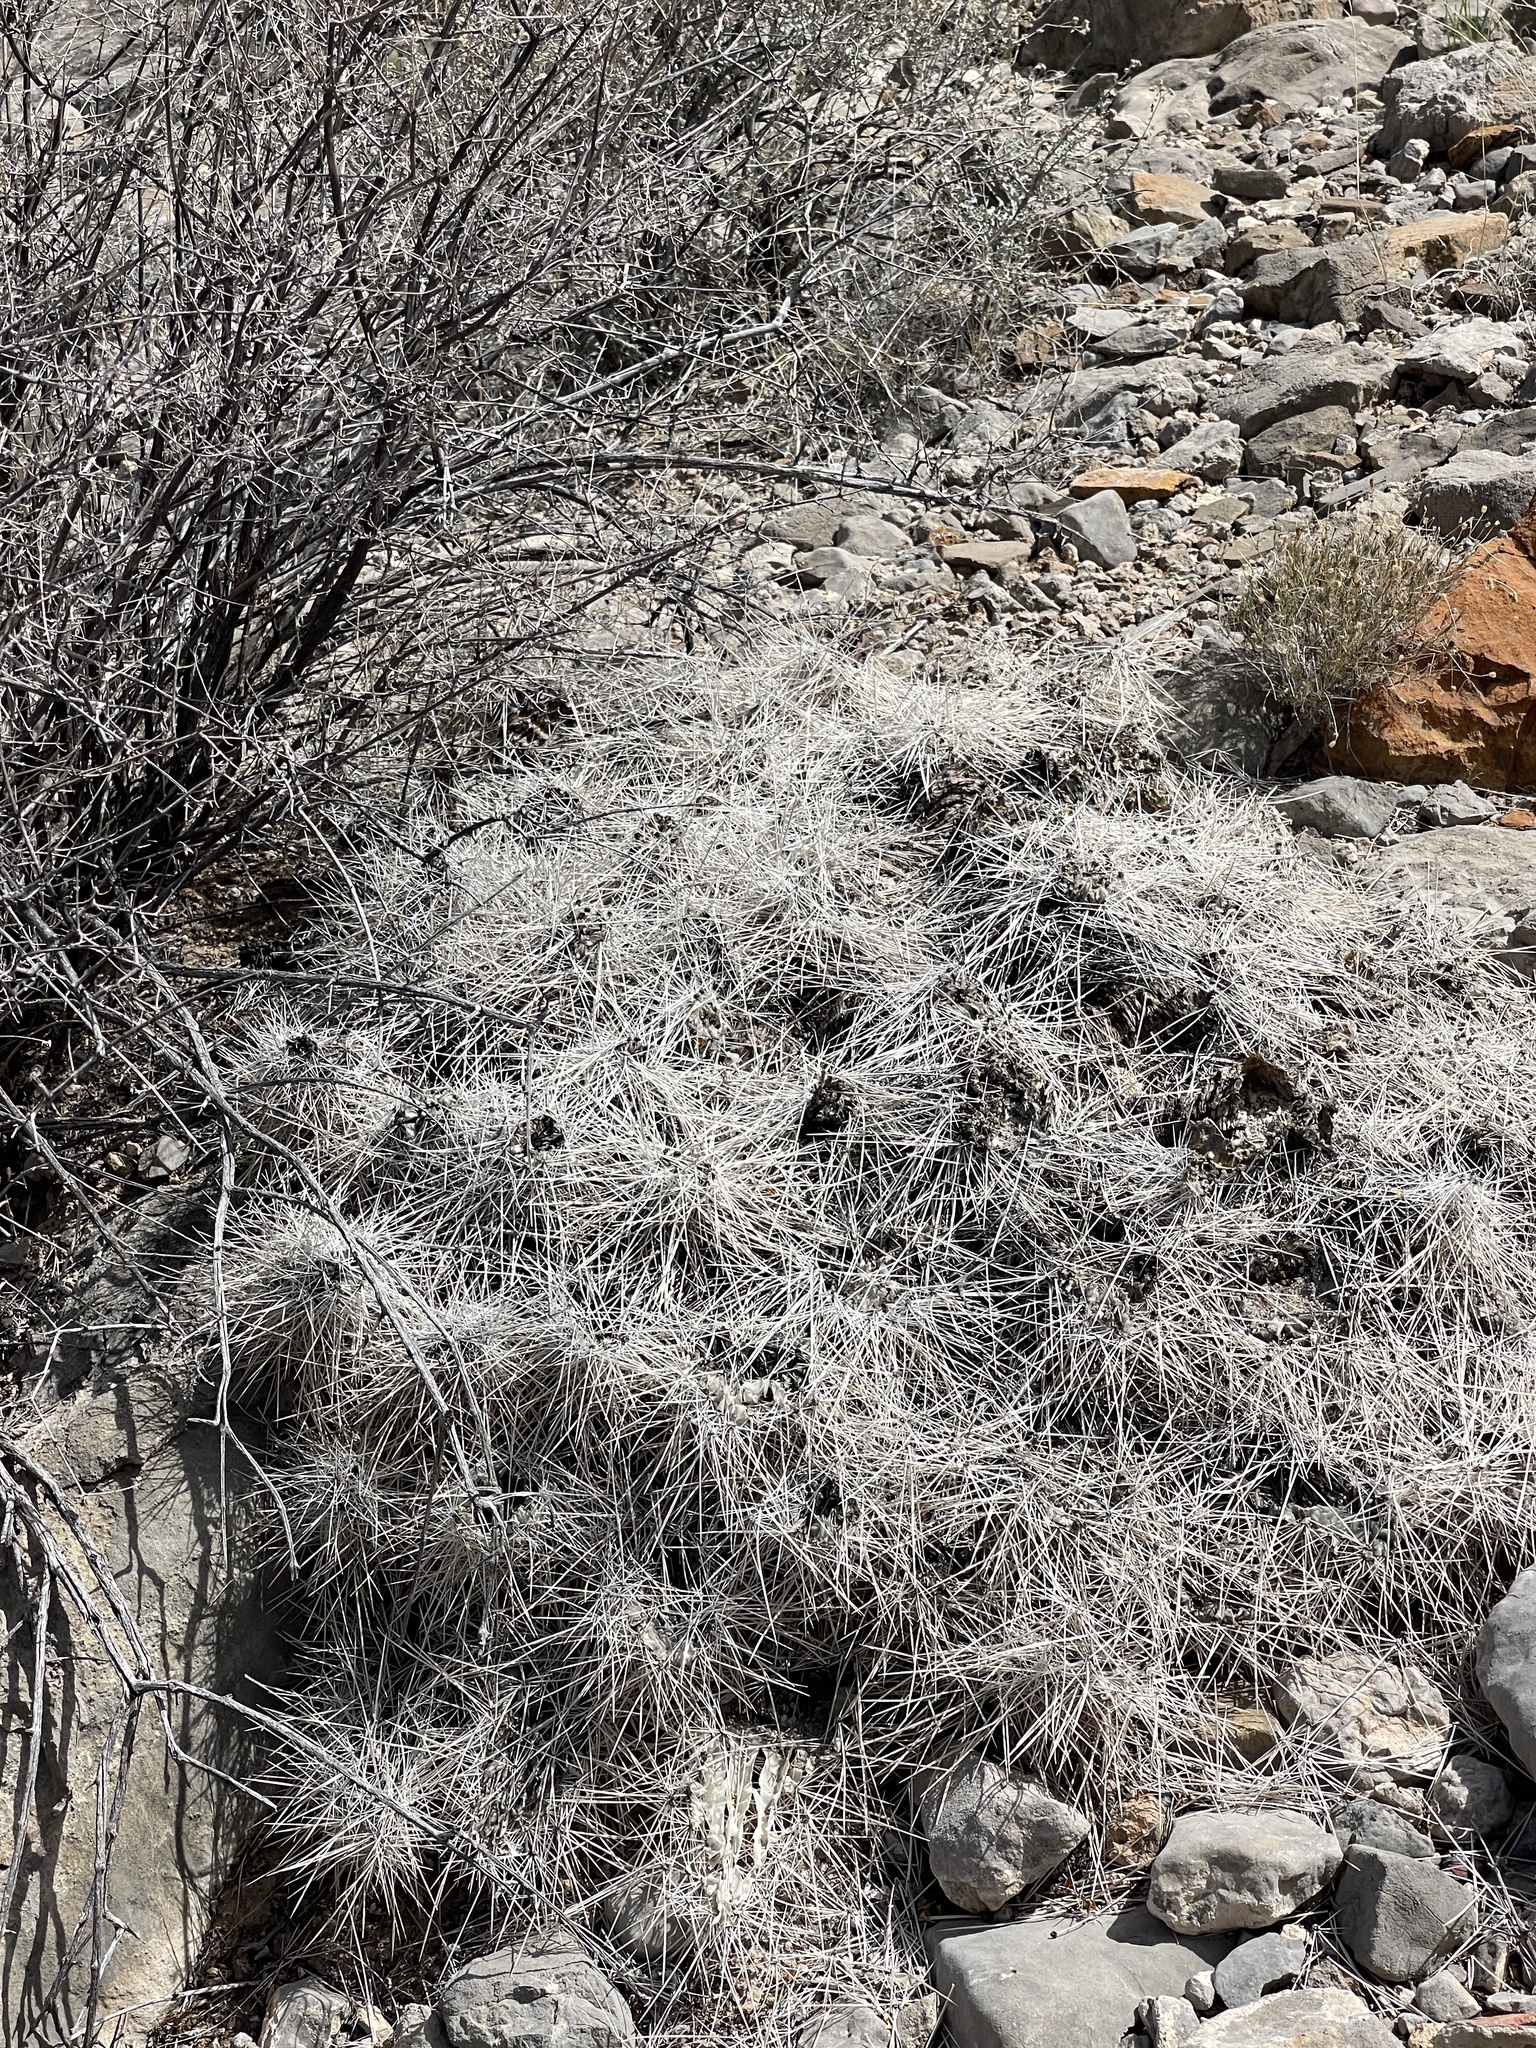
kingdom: Plantae
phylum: Tracheophyta
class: Magnoliopsida
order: Caryophyllales
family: Cactaceae
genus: Echinocereus
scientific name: Echinocereus stramineus
